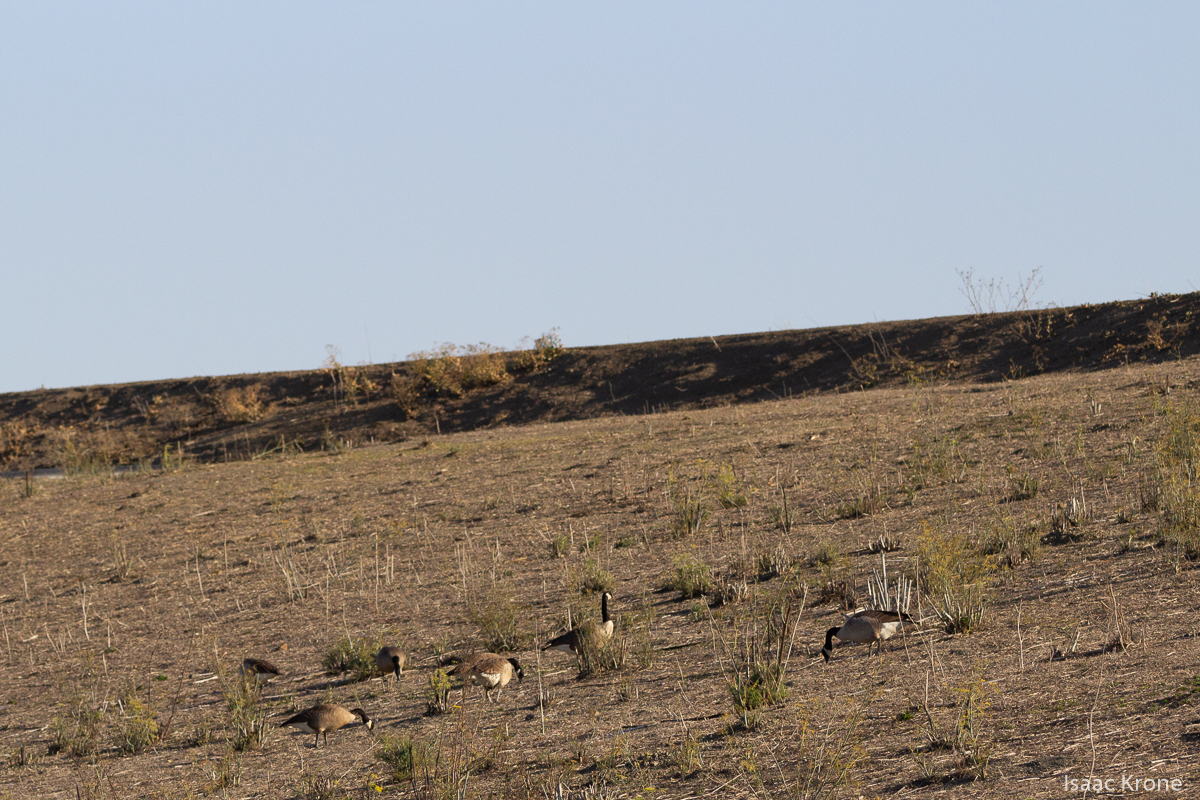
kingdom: Animalia
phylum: Chordata
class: Aves
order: Anseriformes
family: Anatidae
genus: Branta
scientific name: Branta canadensis
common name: Canada goose
